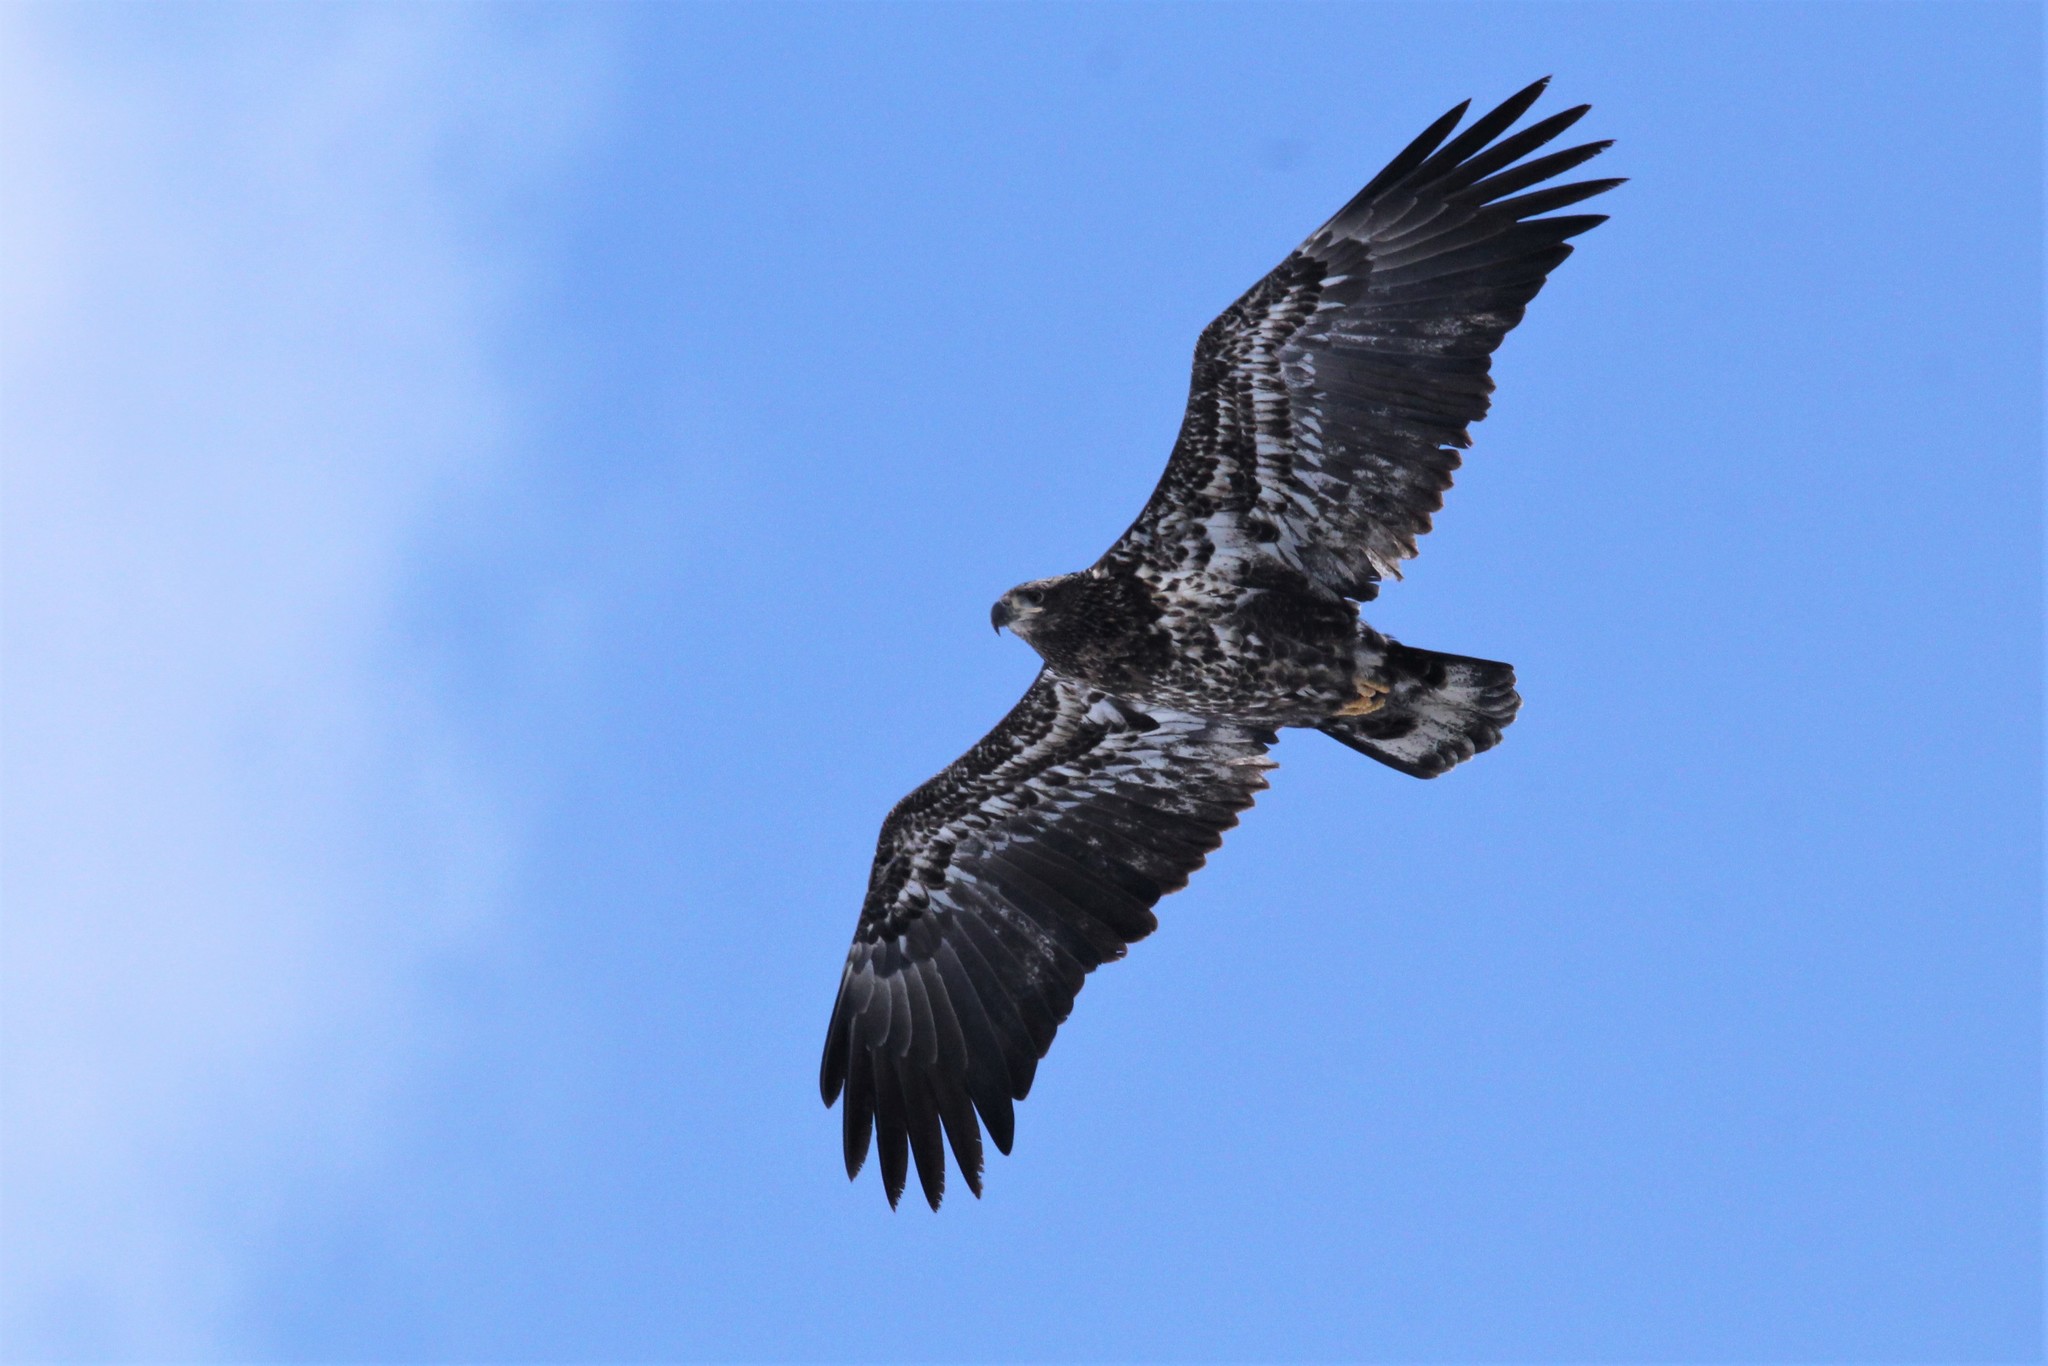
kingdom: Animalia
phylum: Chordata
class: Aves
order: Accipitriformes
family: Accipitridae
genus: Haliaeetus
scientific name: Haliaeetus leucocephalus
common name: Bald eagle
